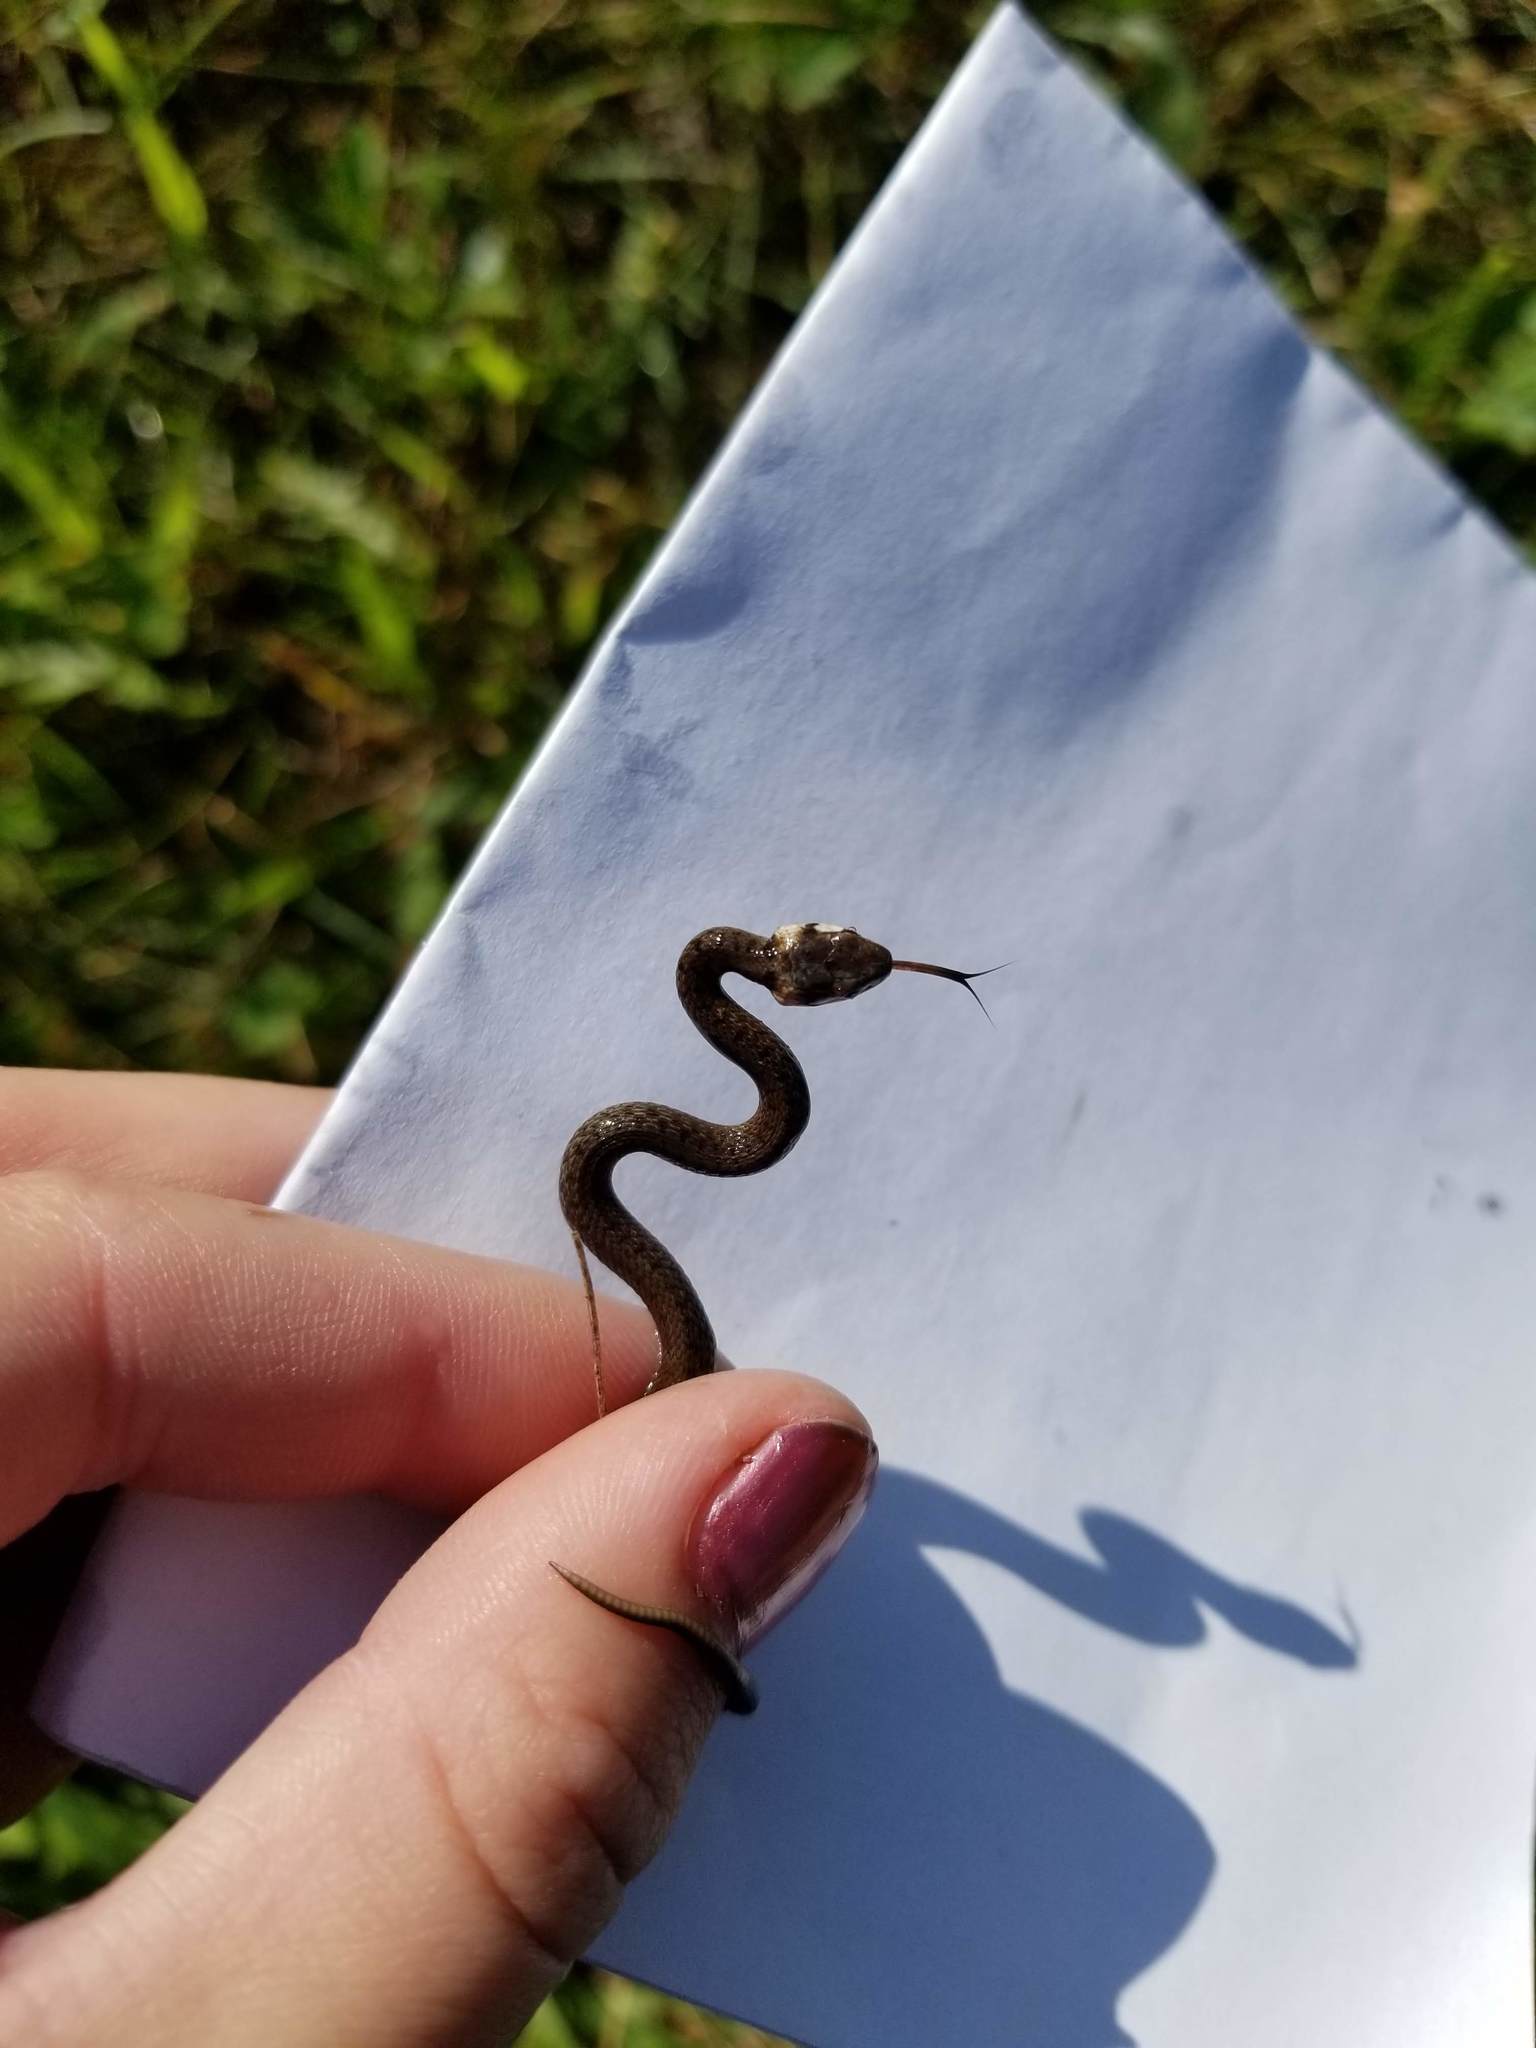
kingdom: Animalia
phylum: Chordata
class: Squamata
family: Colubridae
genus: Storeria
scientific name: Storeria dekayi
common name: (dekay’s) brown snake
